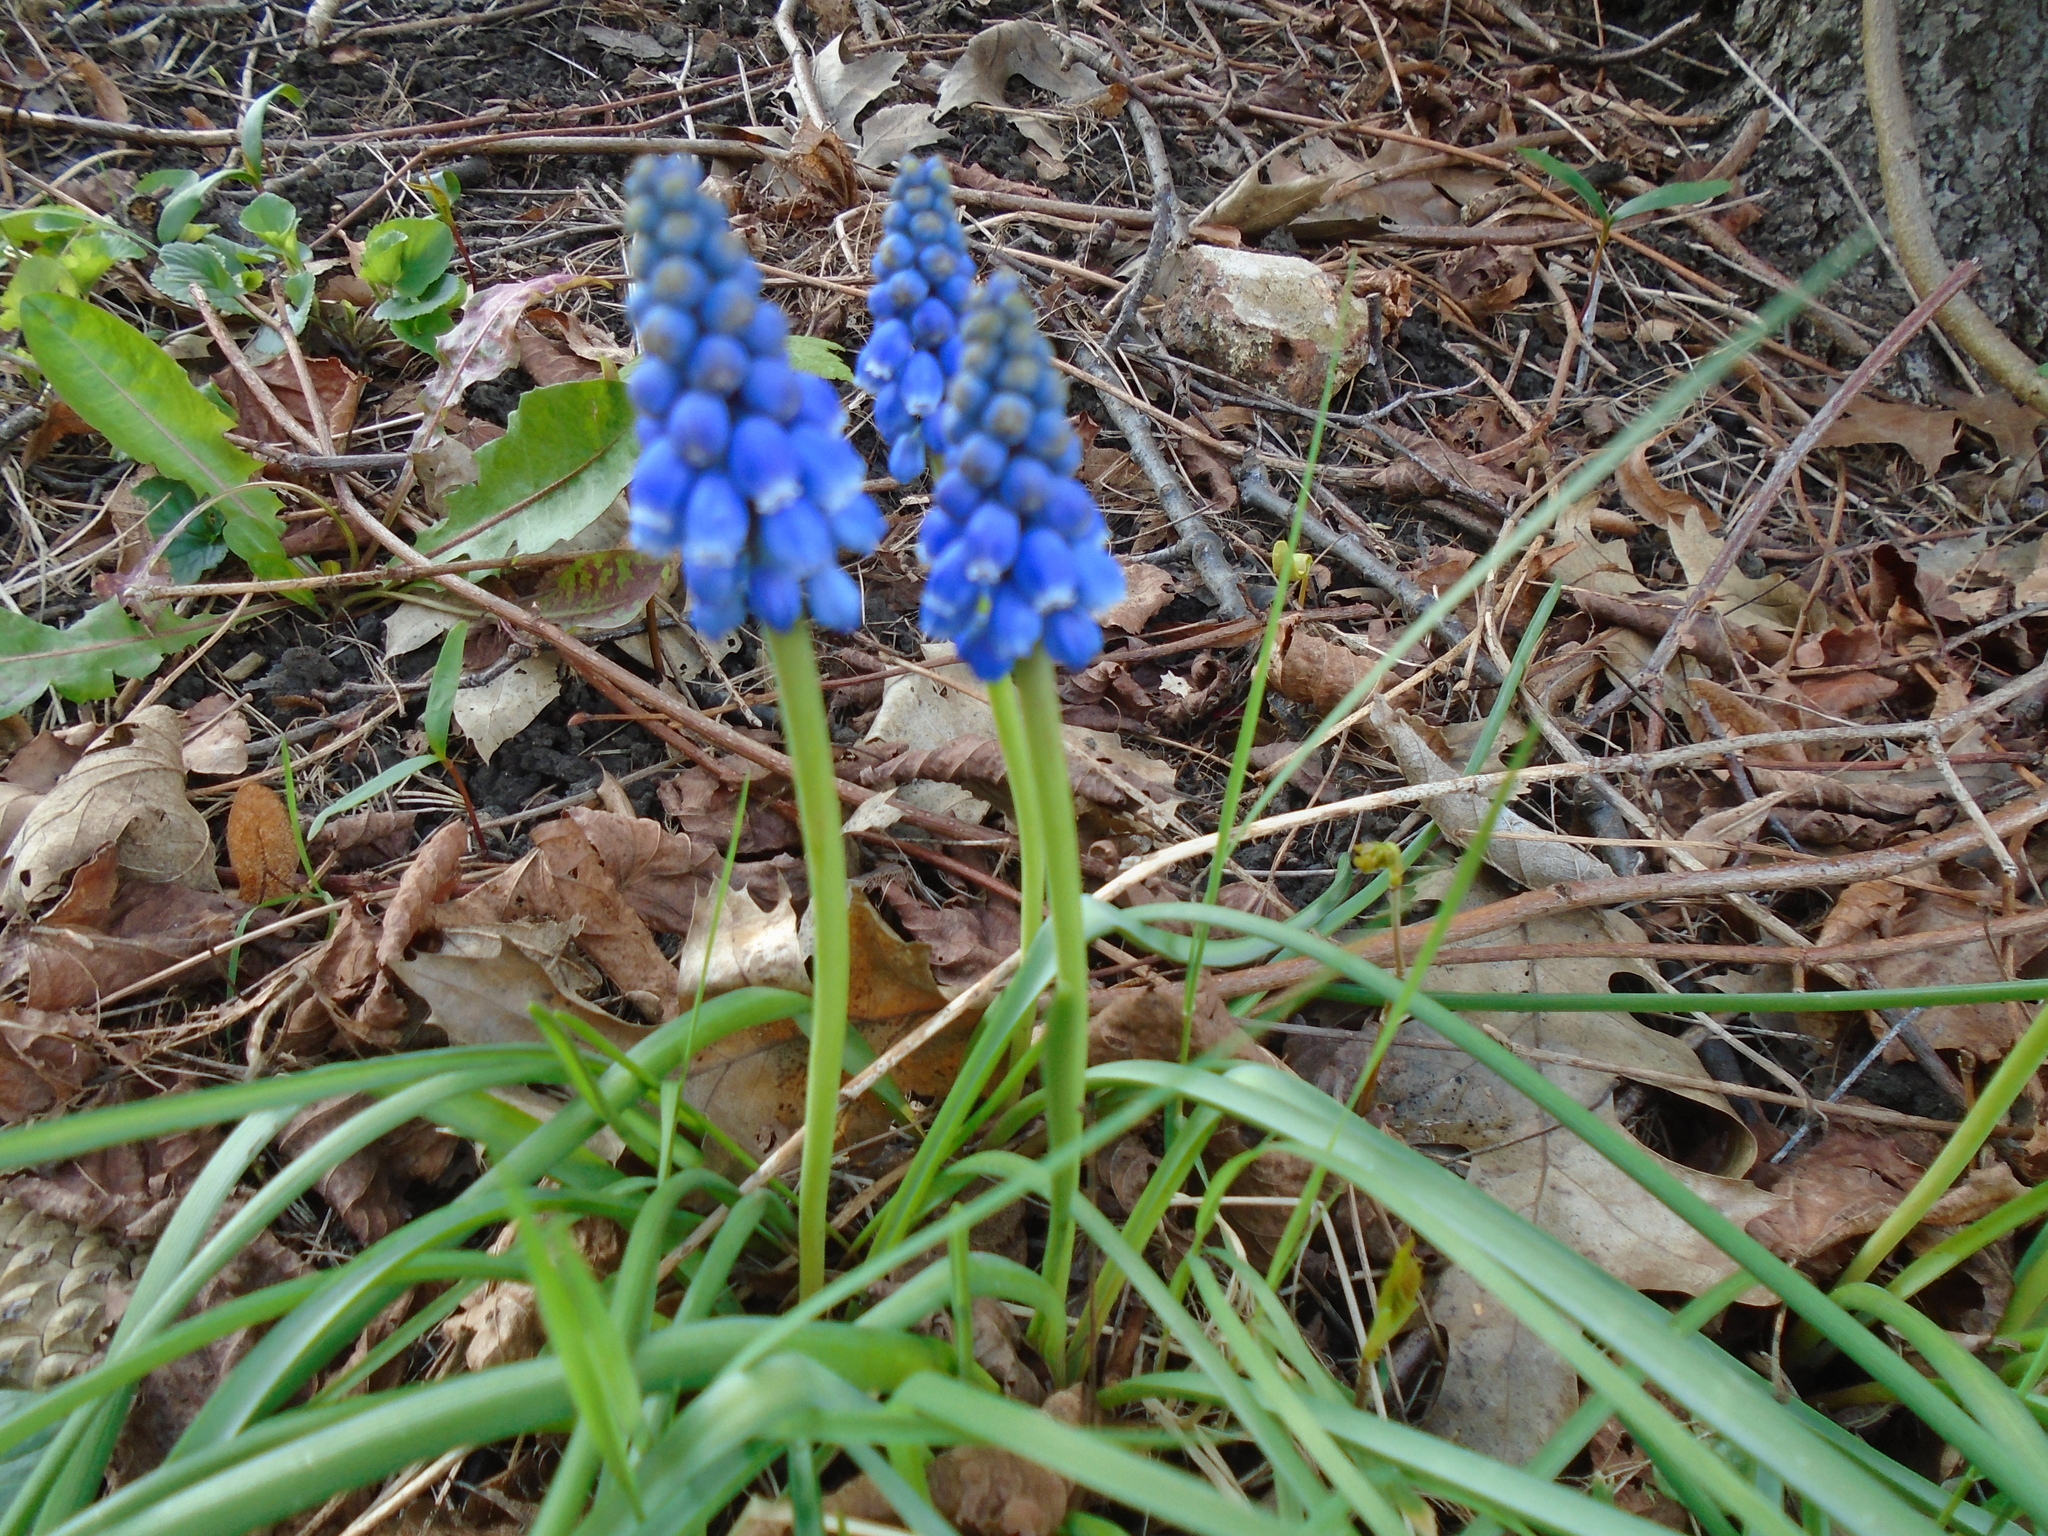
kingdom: Plantae
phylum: Tracheophyta
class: Liliopsida
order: Asparagales
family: Asparagaceae
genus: Muscari
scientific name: Muscari armeniacum
